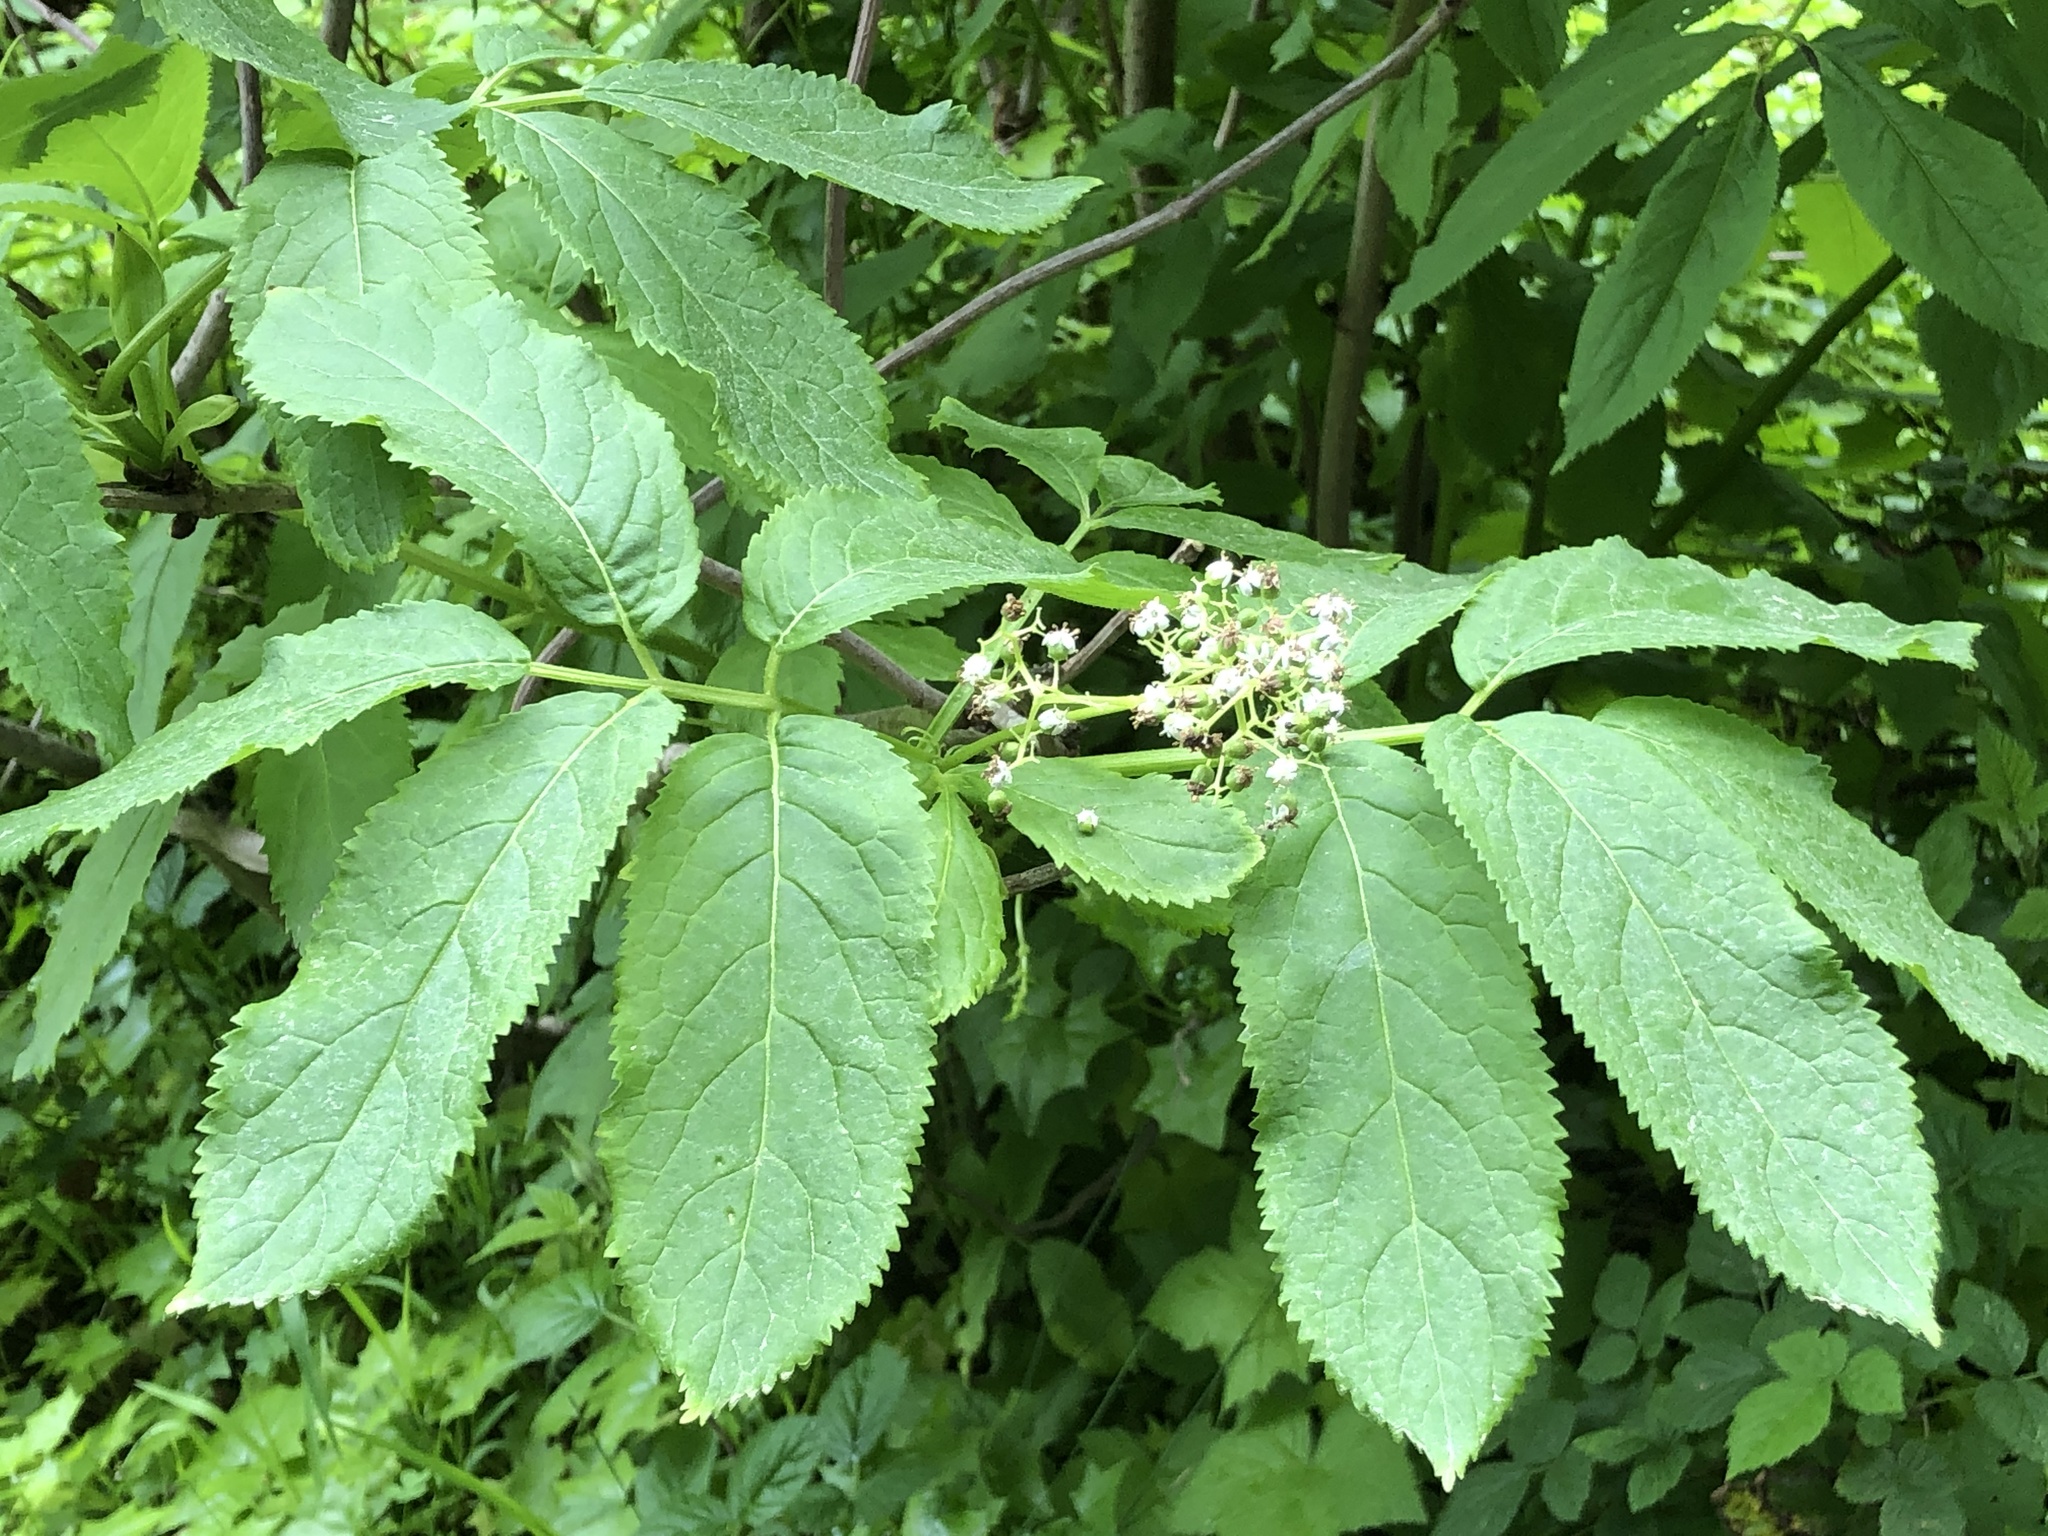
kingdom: Plantae
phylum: Tracheophyta
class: Magnoliopsida
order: Dipsacales
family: Viburnaceae
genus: Sambucus
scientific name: Sambucus racemosa
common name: Red-berried elder
